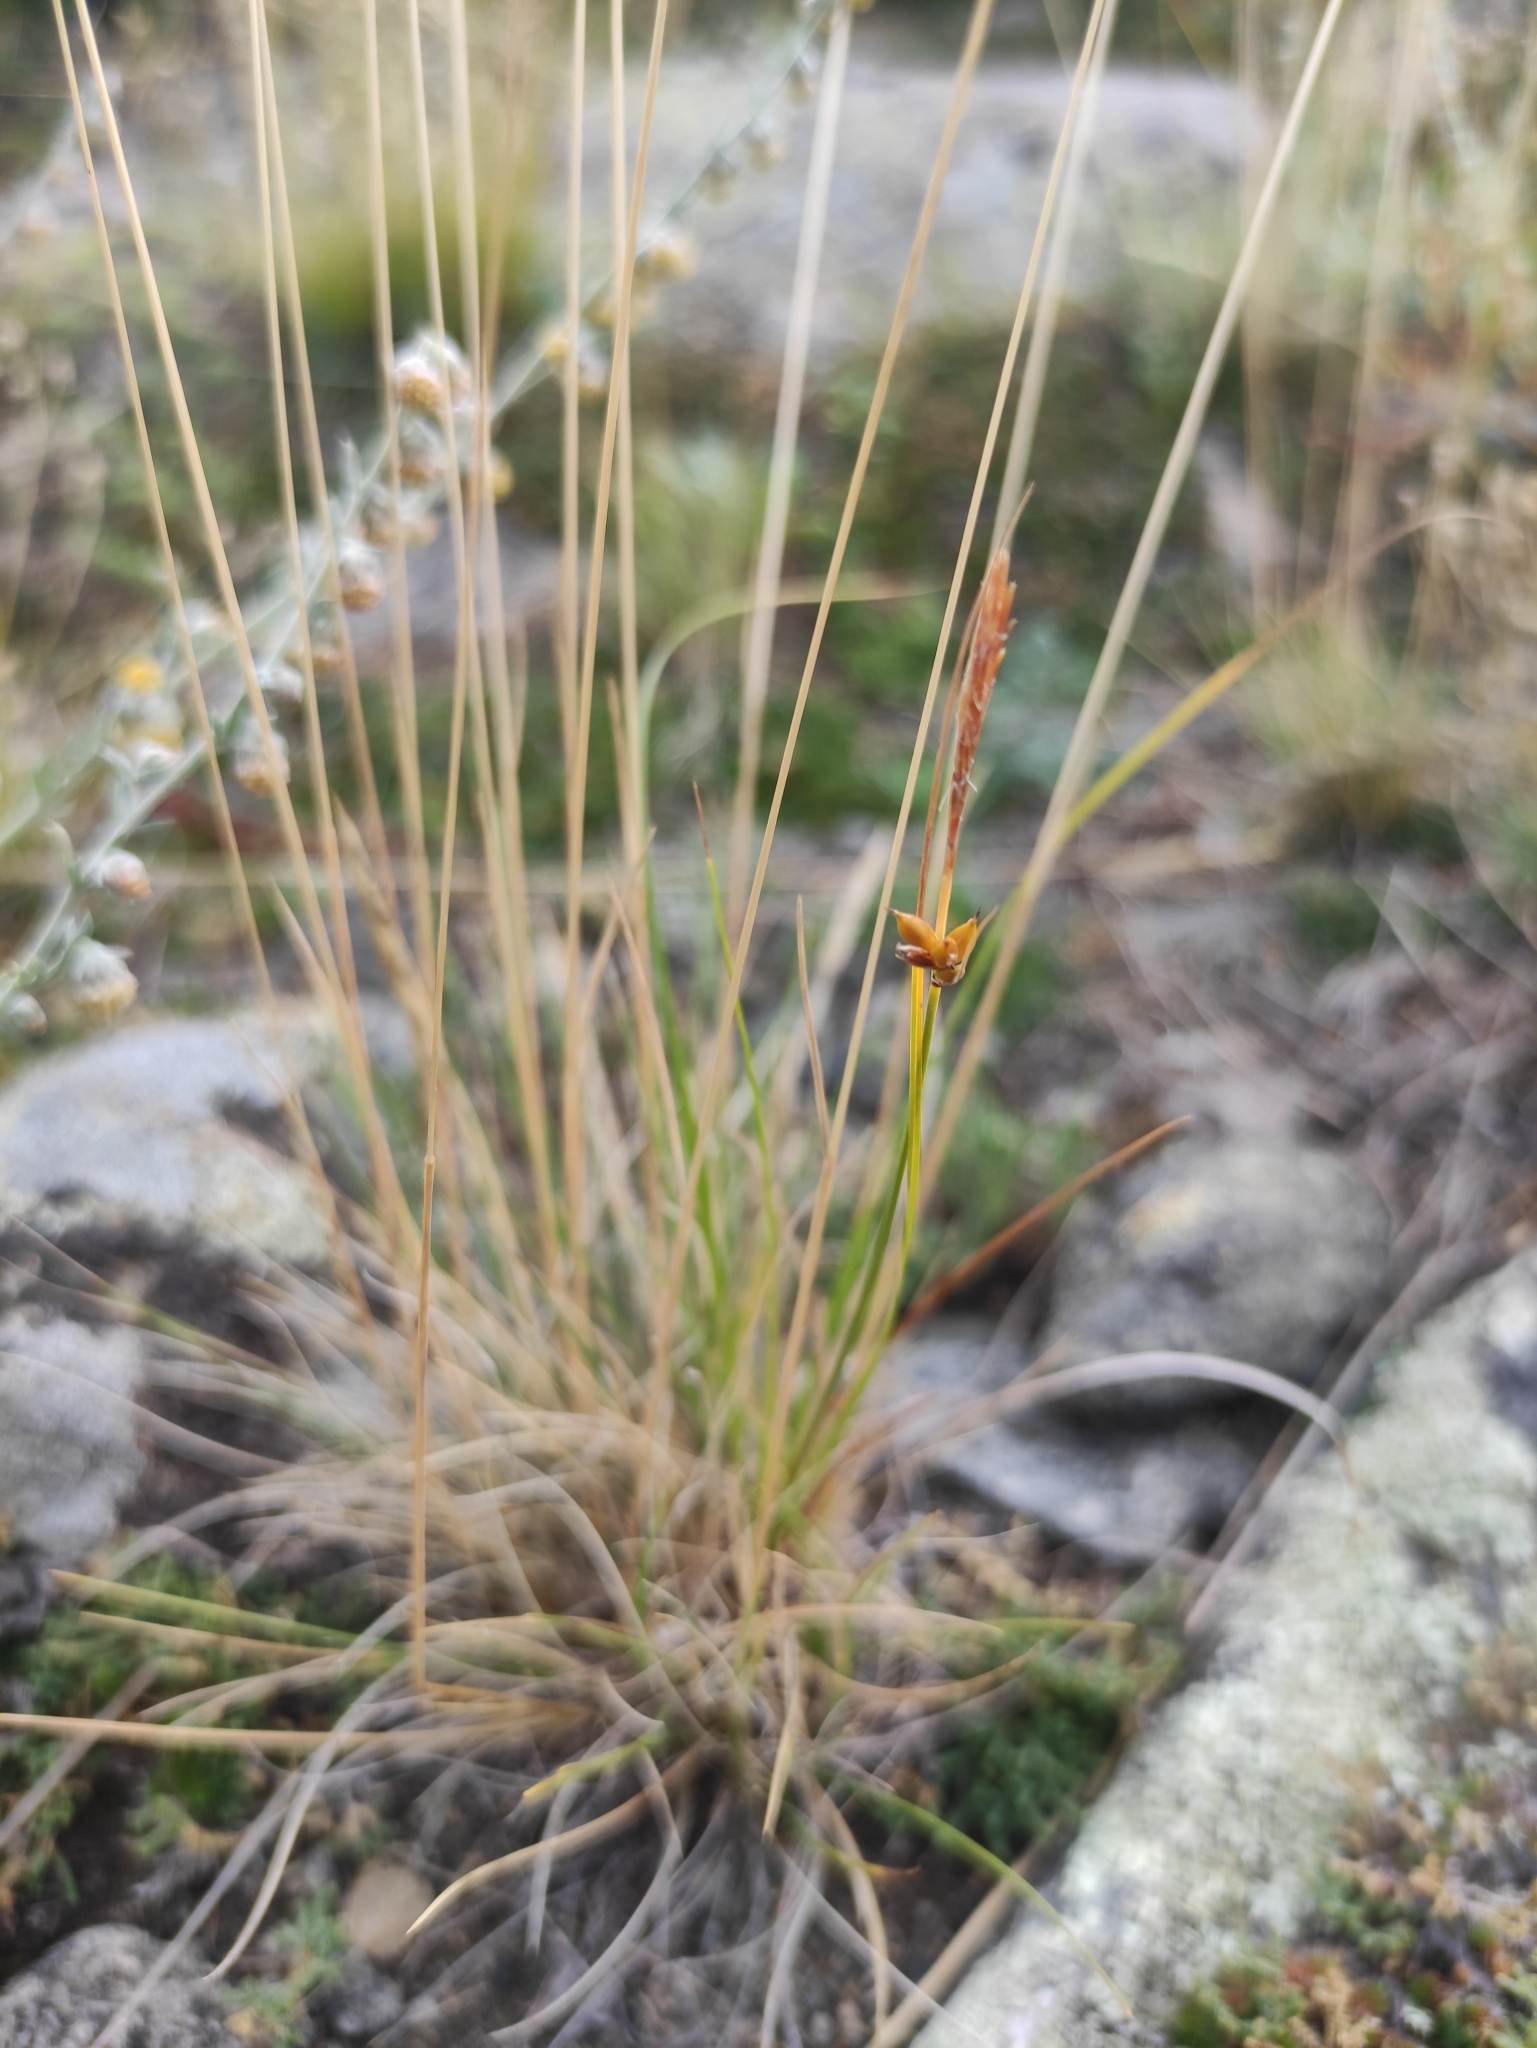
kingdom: Plantae
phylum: Tracheophyta
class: Liliopsida
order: Poales
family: Cyperaceae
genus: Carex
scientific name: Carex korshinskyi
